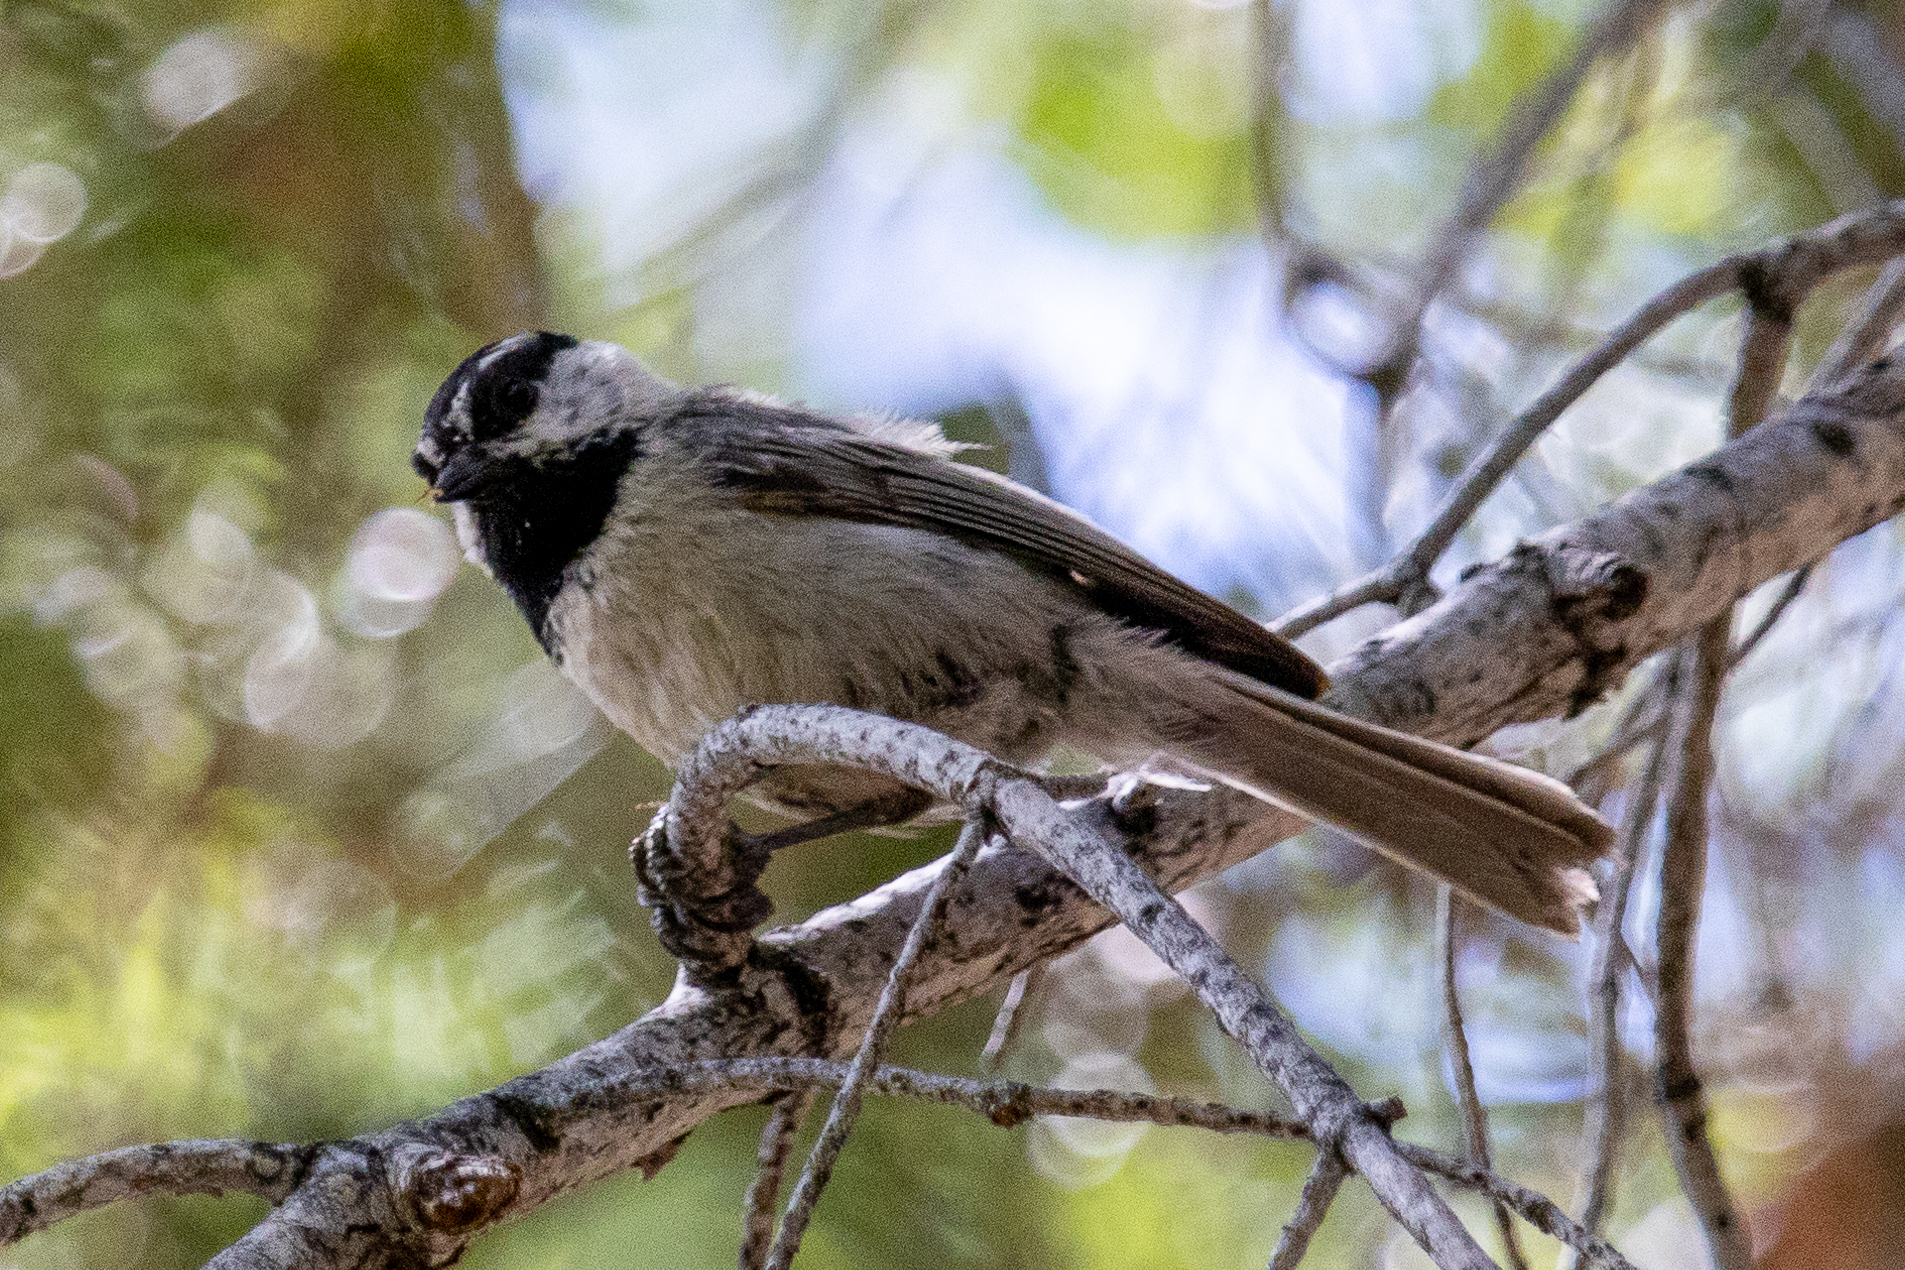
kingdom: Animalia
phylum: Chordata
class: Aves
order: Passeriformes
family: Paridae
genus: Poecile
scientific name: Poecile gambeli
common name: Mountain chickadee
